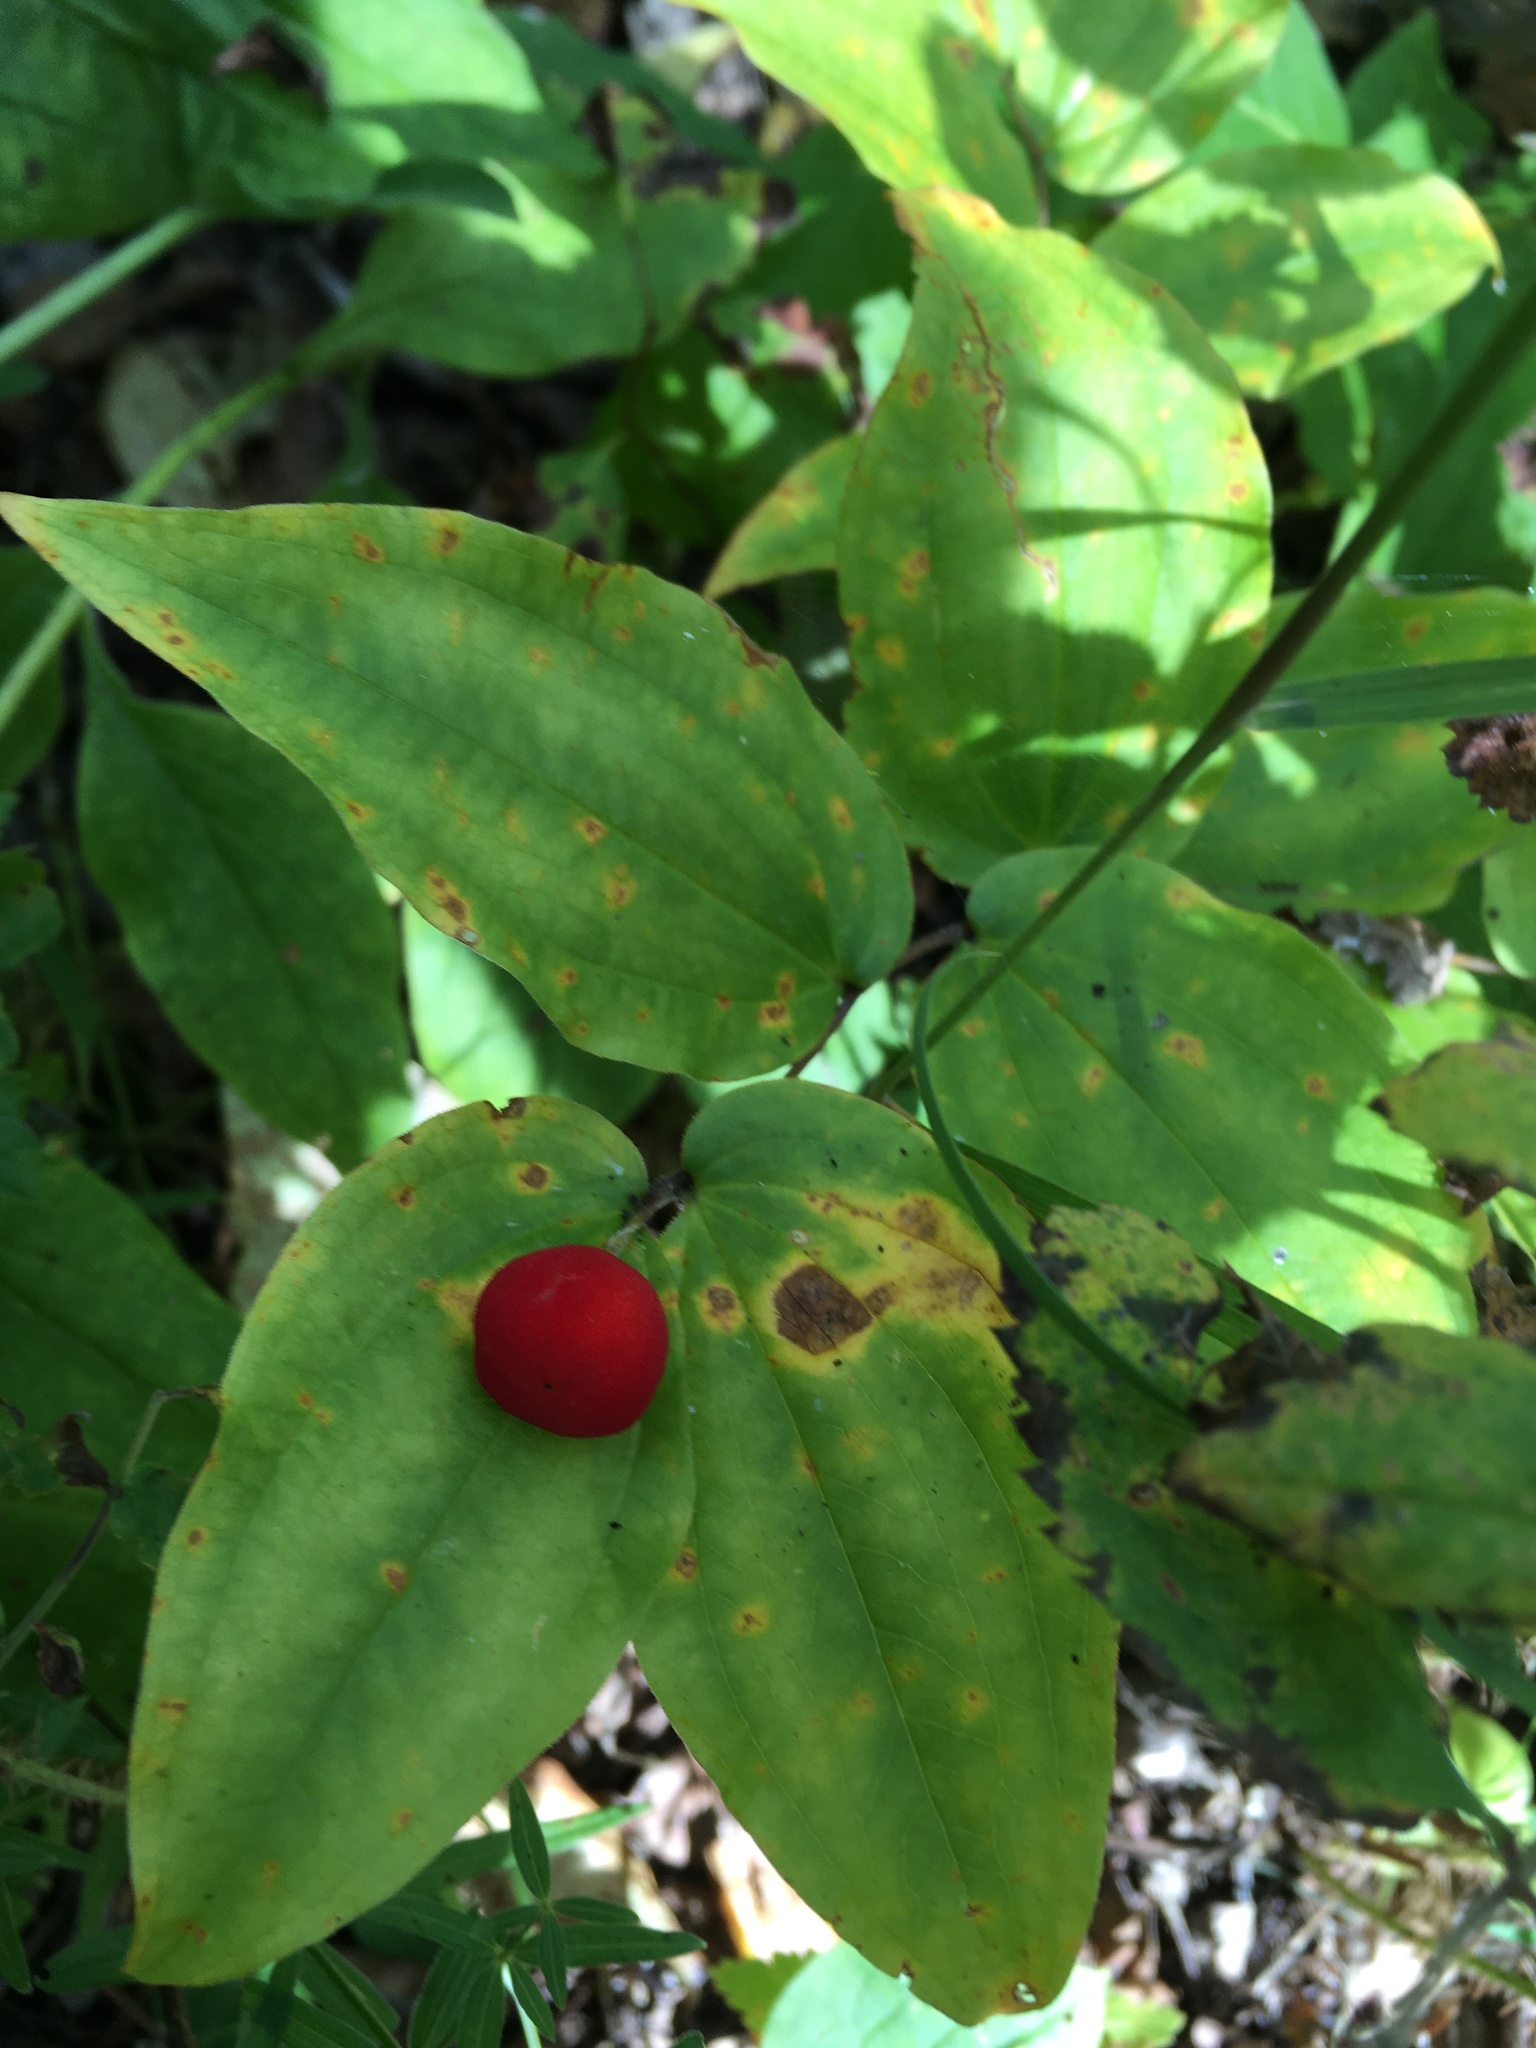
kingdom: Plantae
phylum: Tracheophyta
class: Liliopsida
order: Liliales
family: Liliaceae
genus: Prosartes
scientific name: Prosartes trachycarpa
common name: Rough-fruit fairy-bells
